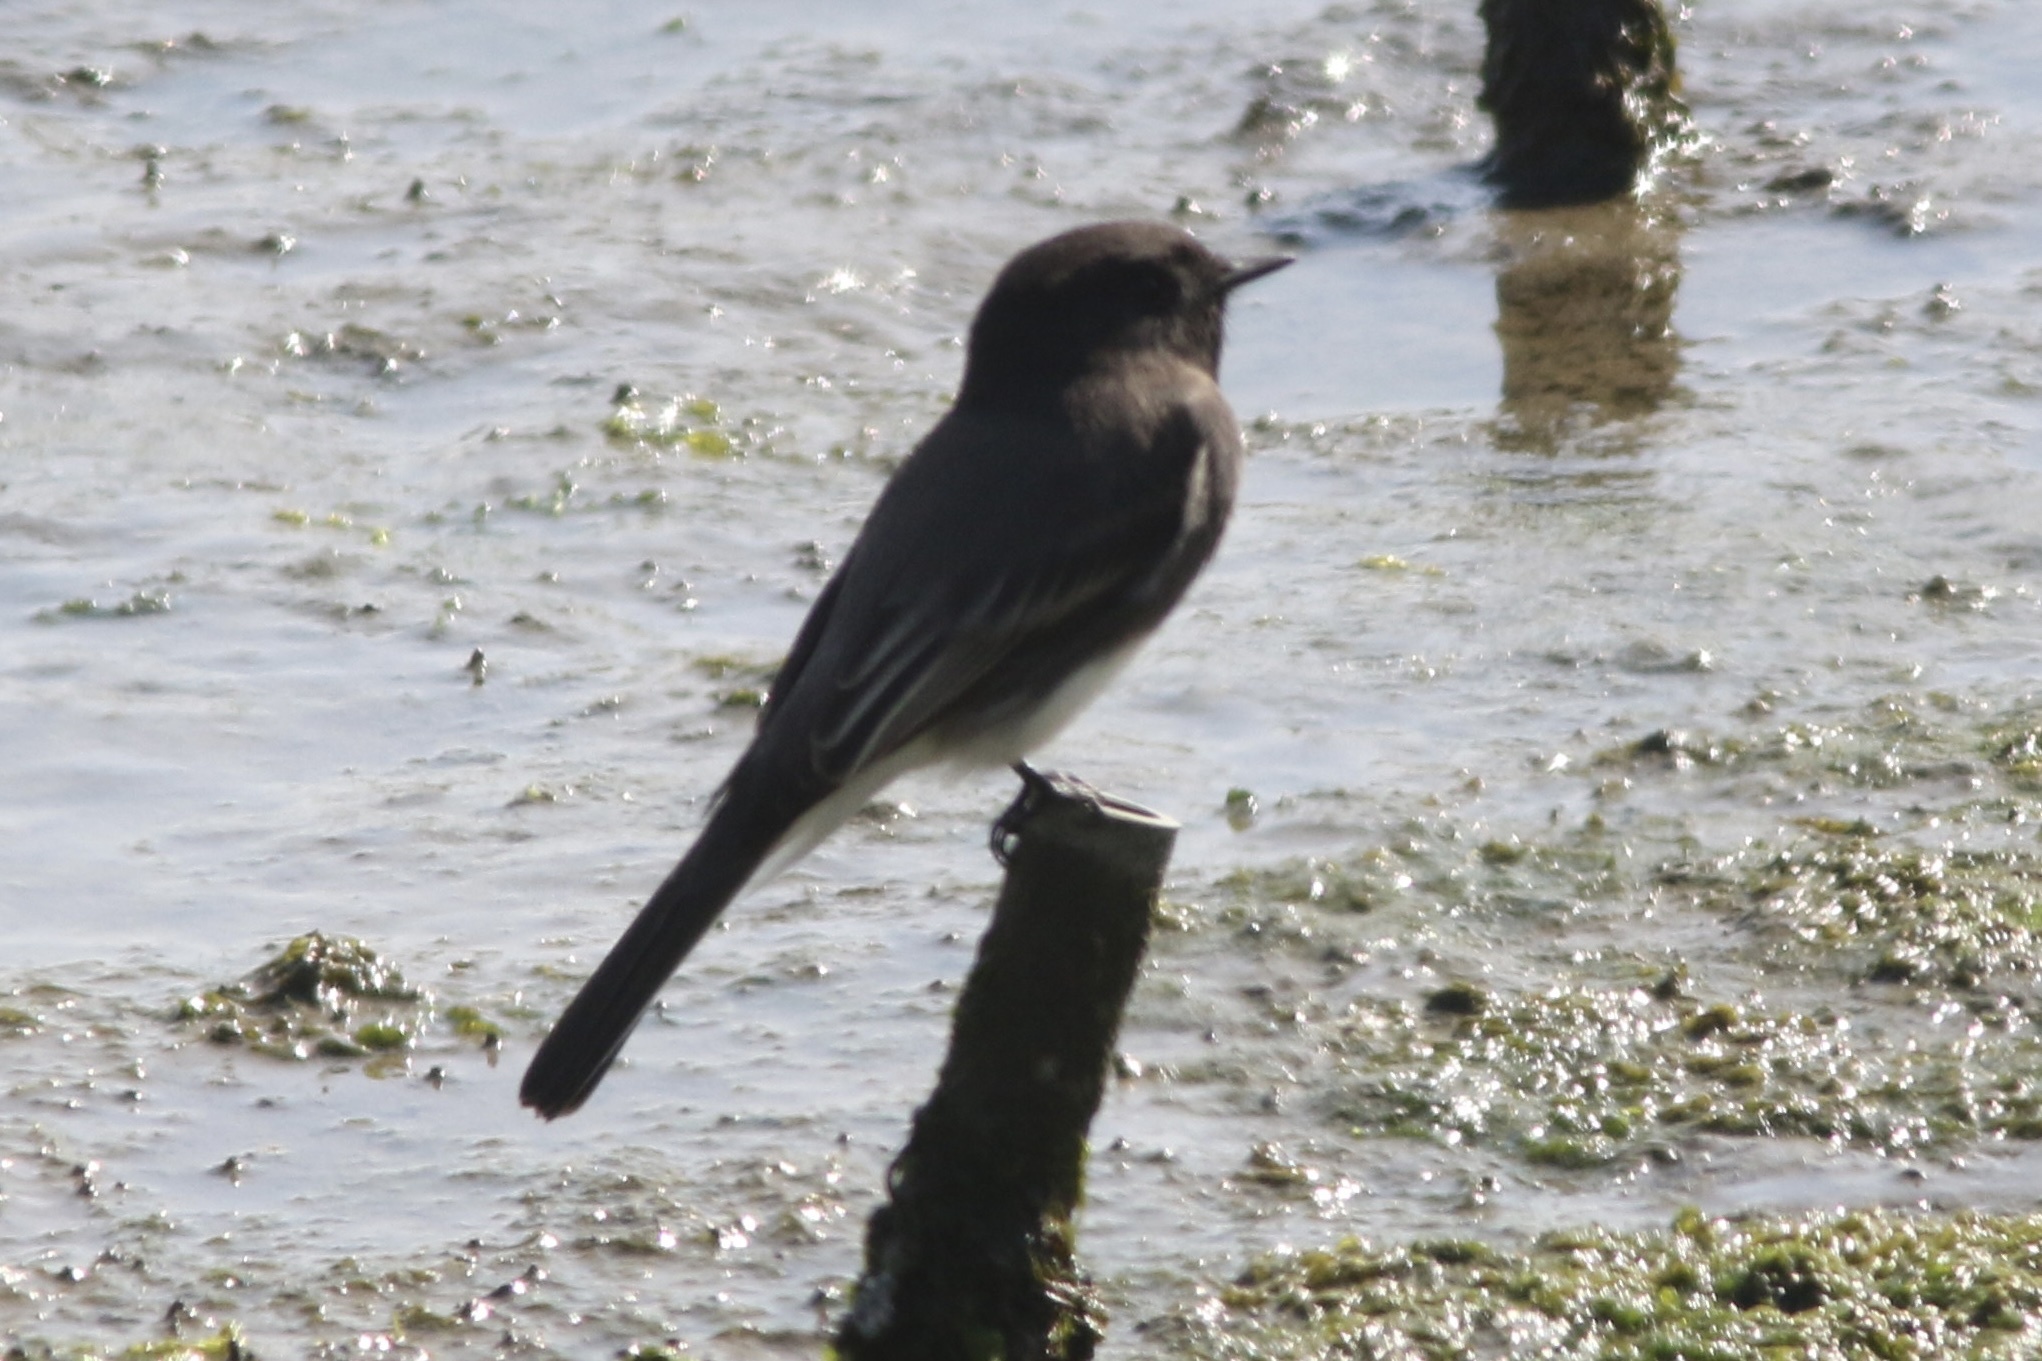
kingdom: Animalia
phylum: Chordata
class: Aves
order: Passeriformes
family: Tyrannidae
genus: Sayornis
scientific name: Sayornis nigricans
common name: Black phoebe
